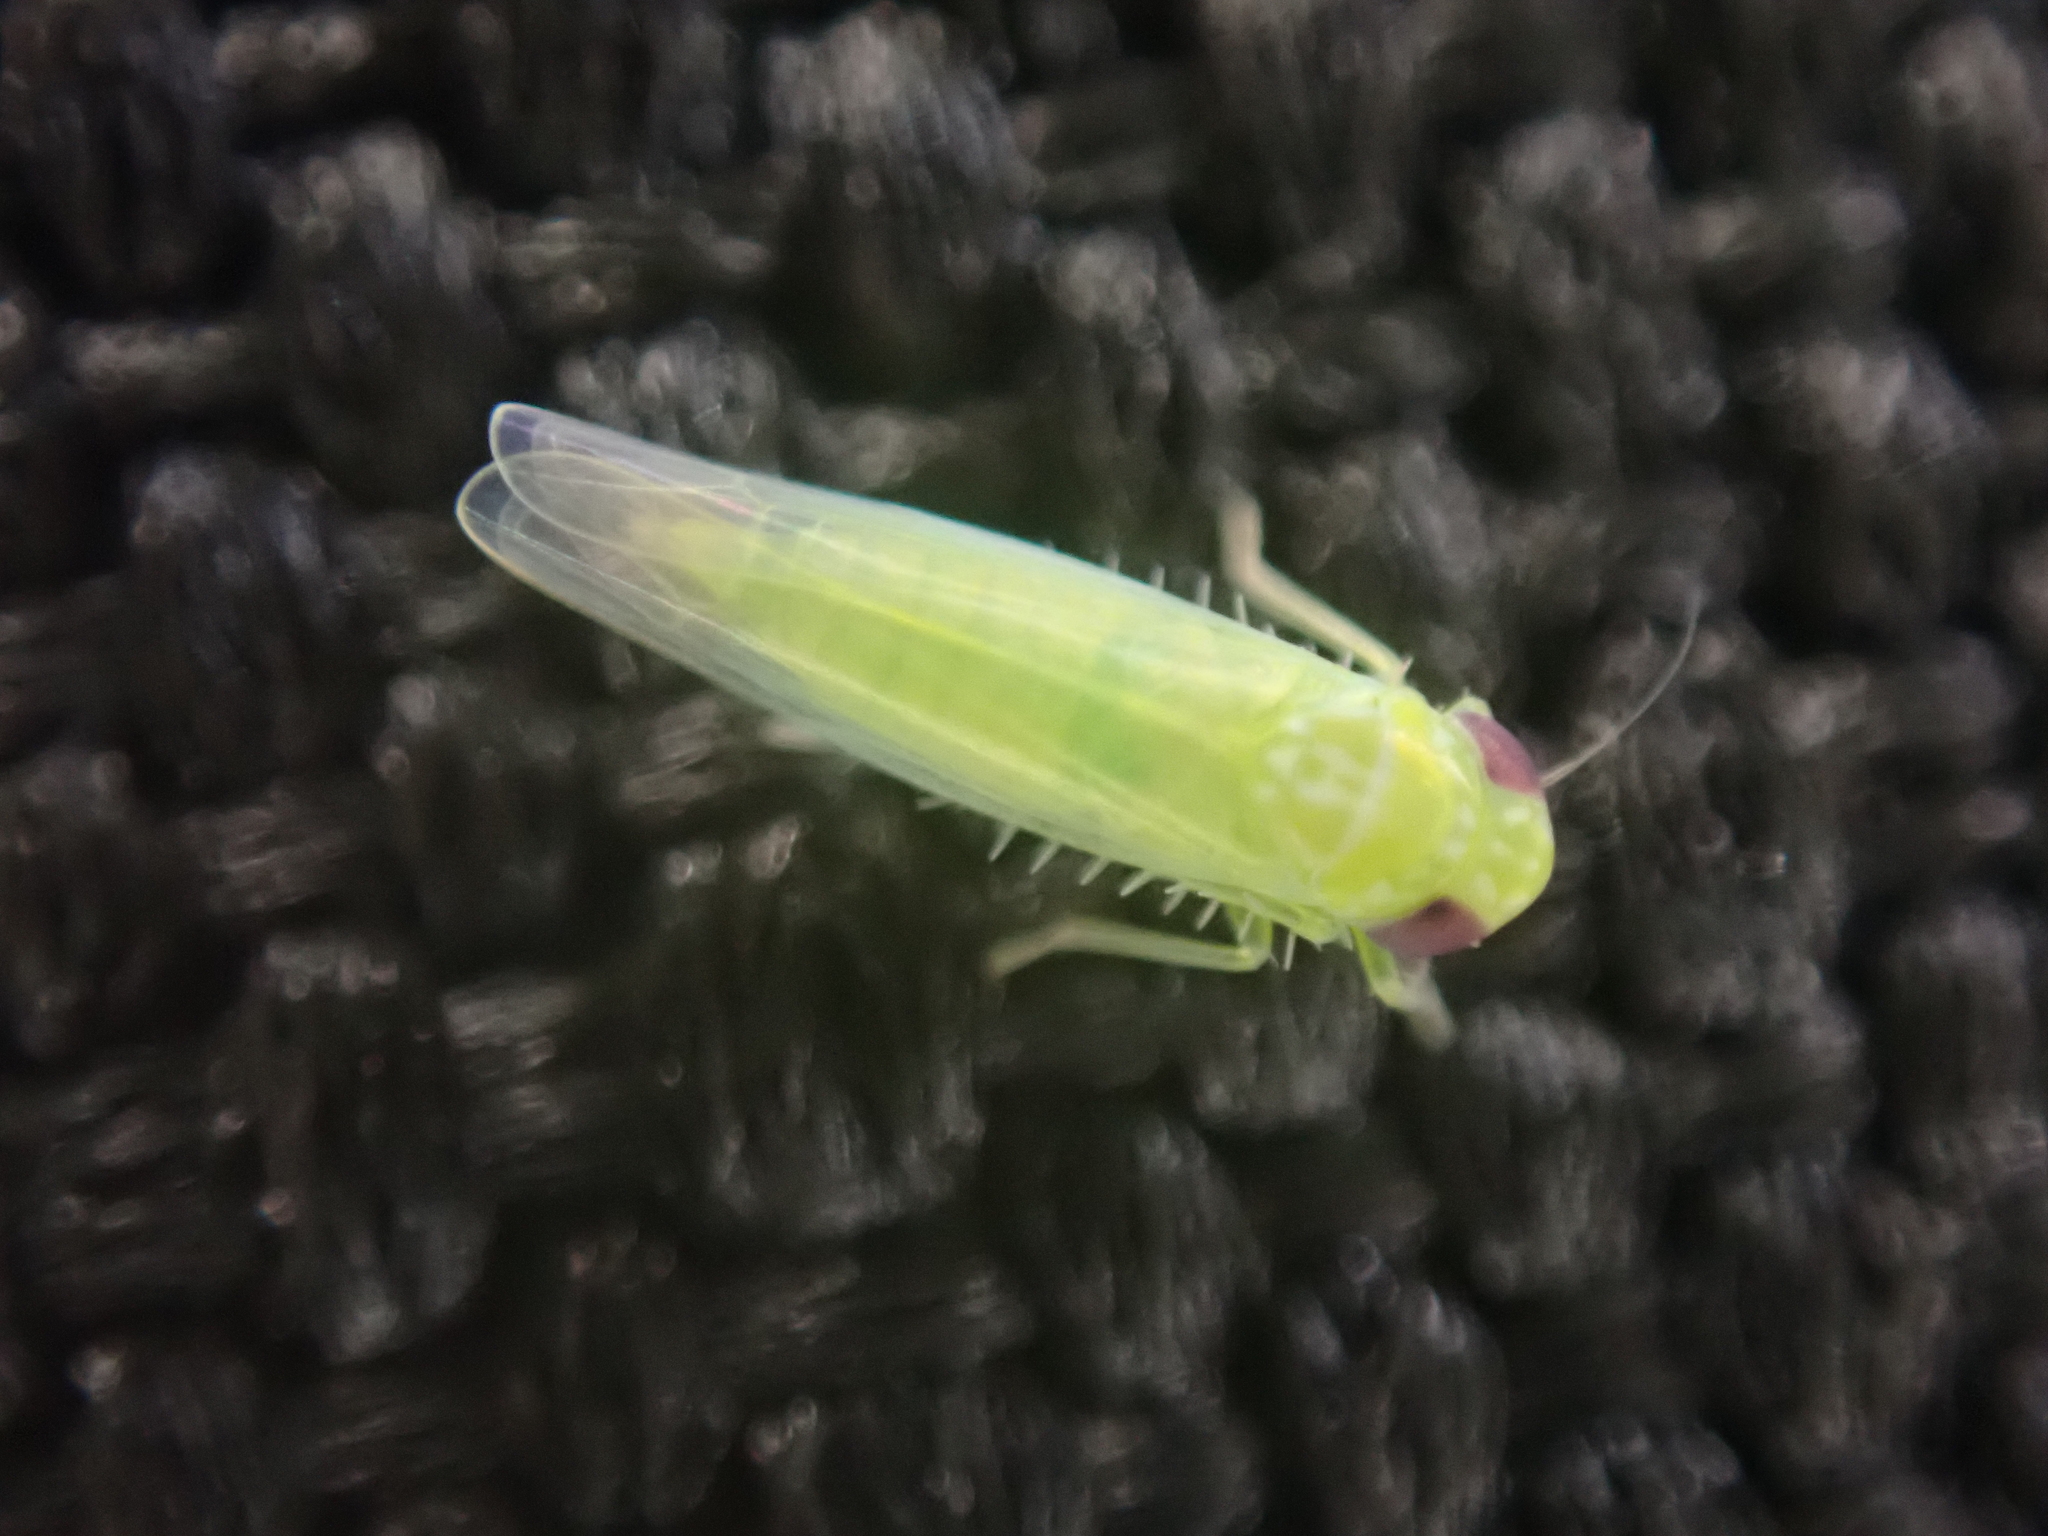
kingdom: Animalia
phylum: Arthropoda
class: Insecta
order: Hemiptera
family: Cicadellidae
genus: Empoasca
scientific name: Empoasca fabae
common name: Potato leafhopper
